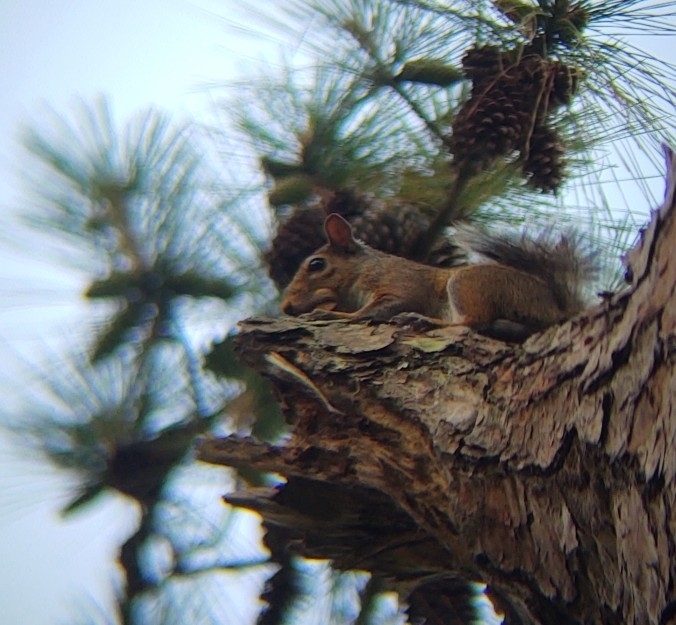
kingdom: Animalia
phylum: Chordata
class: Mammalia
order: Rodentia
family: Sciuridae
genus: Sciurus
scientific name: Sciurus carolinensis
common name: Eastern gray squirrel
